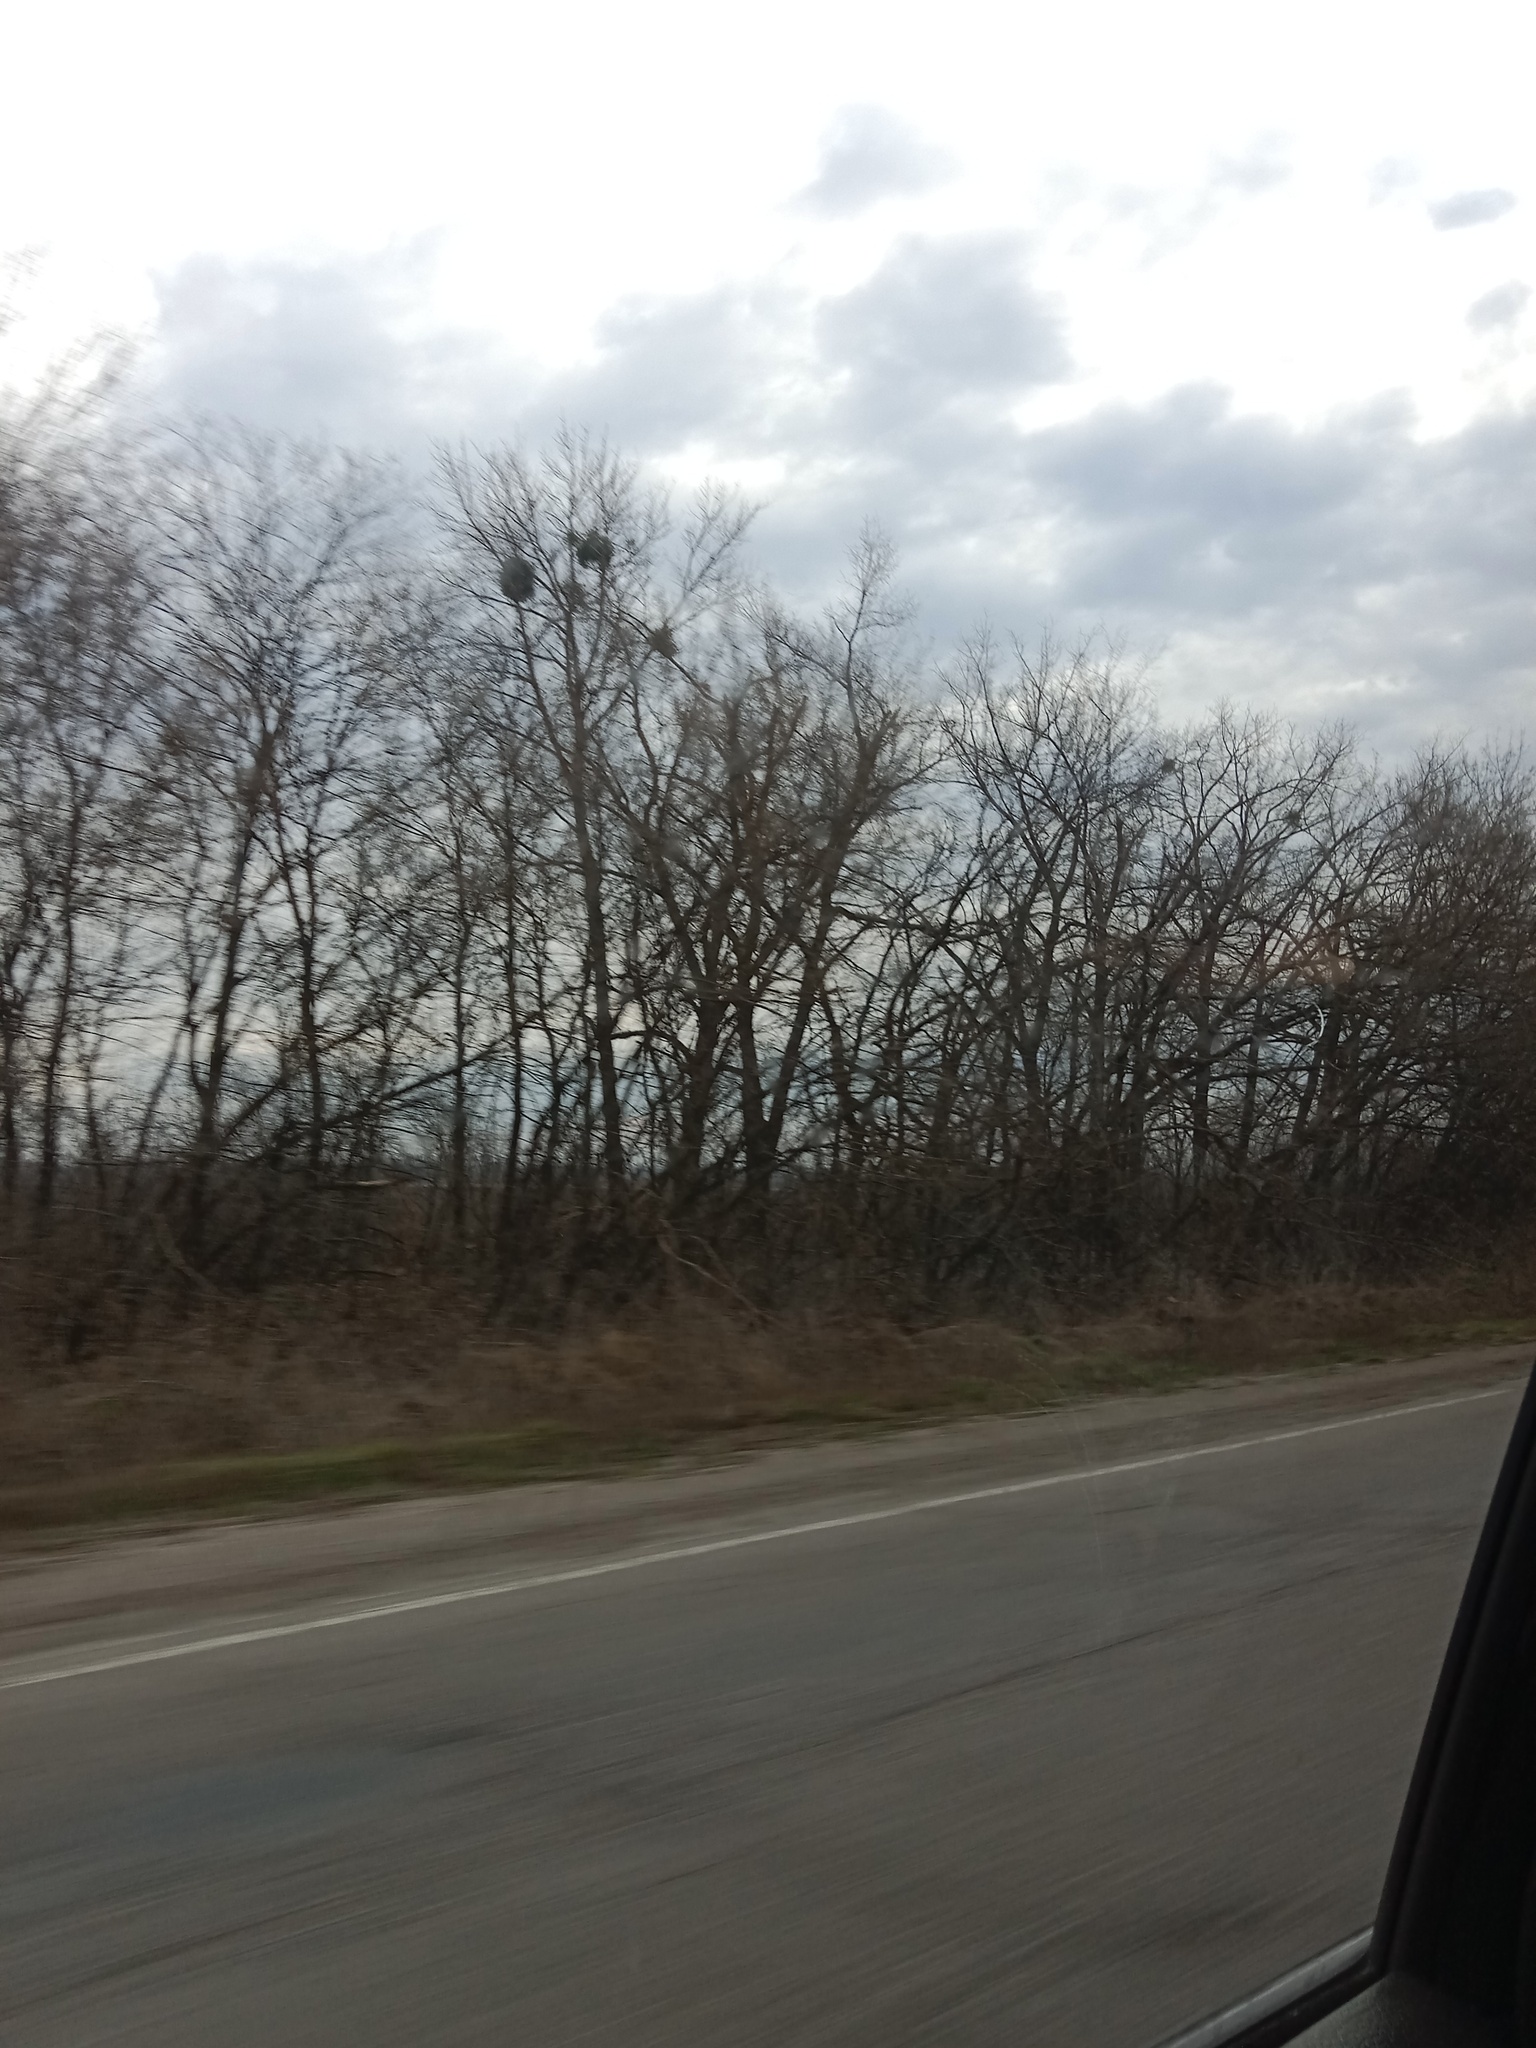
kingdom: Plantae
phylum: Tracheophyta
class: Magnoliopsida
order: Santalales
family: Viscaceae
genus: Viscum
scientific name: Viscum album
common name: Mistletoe
